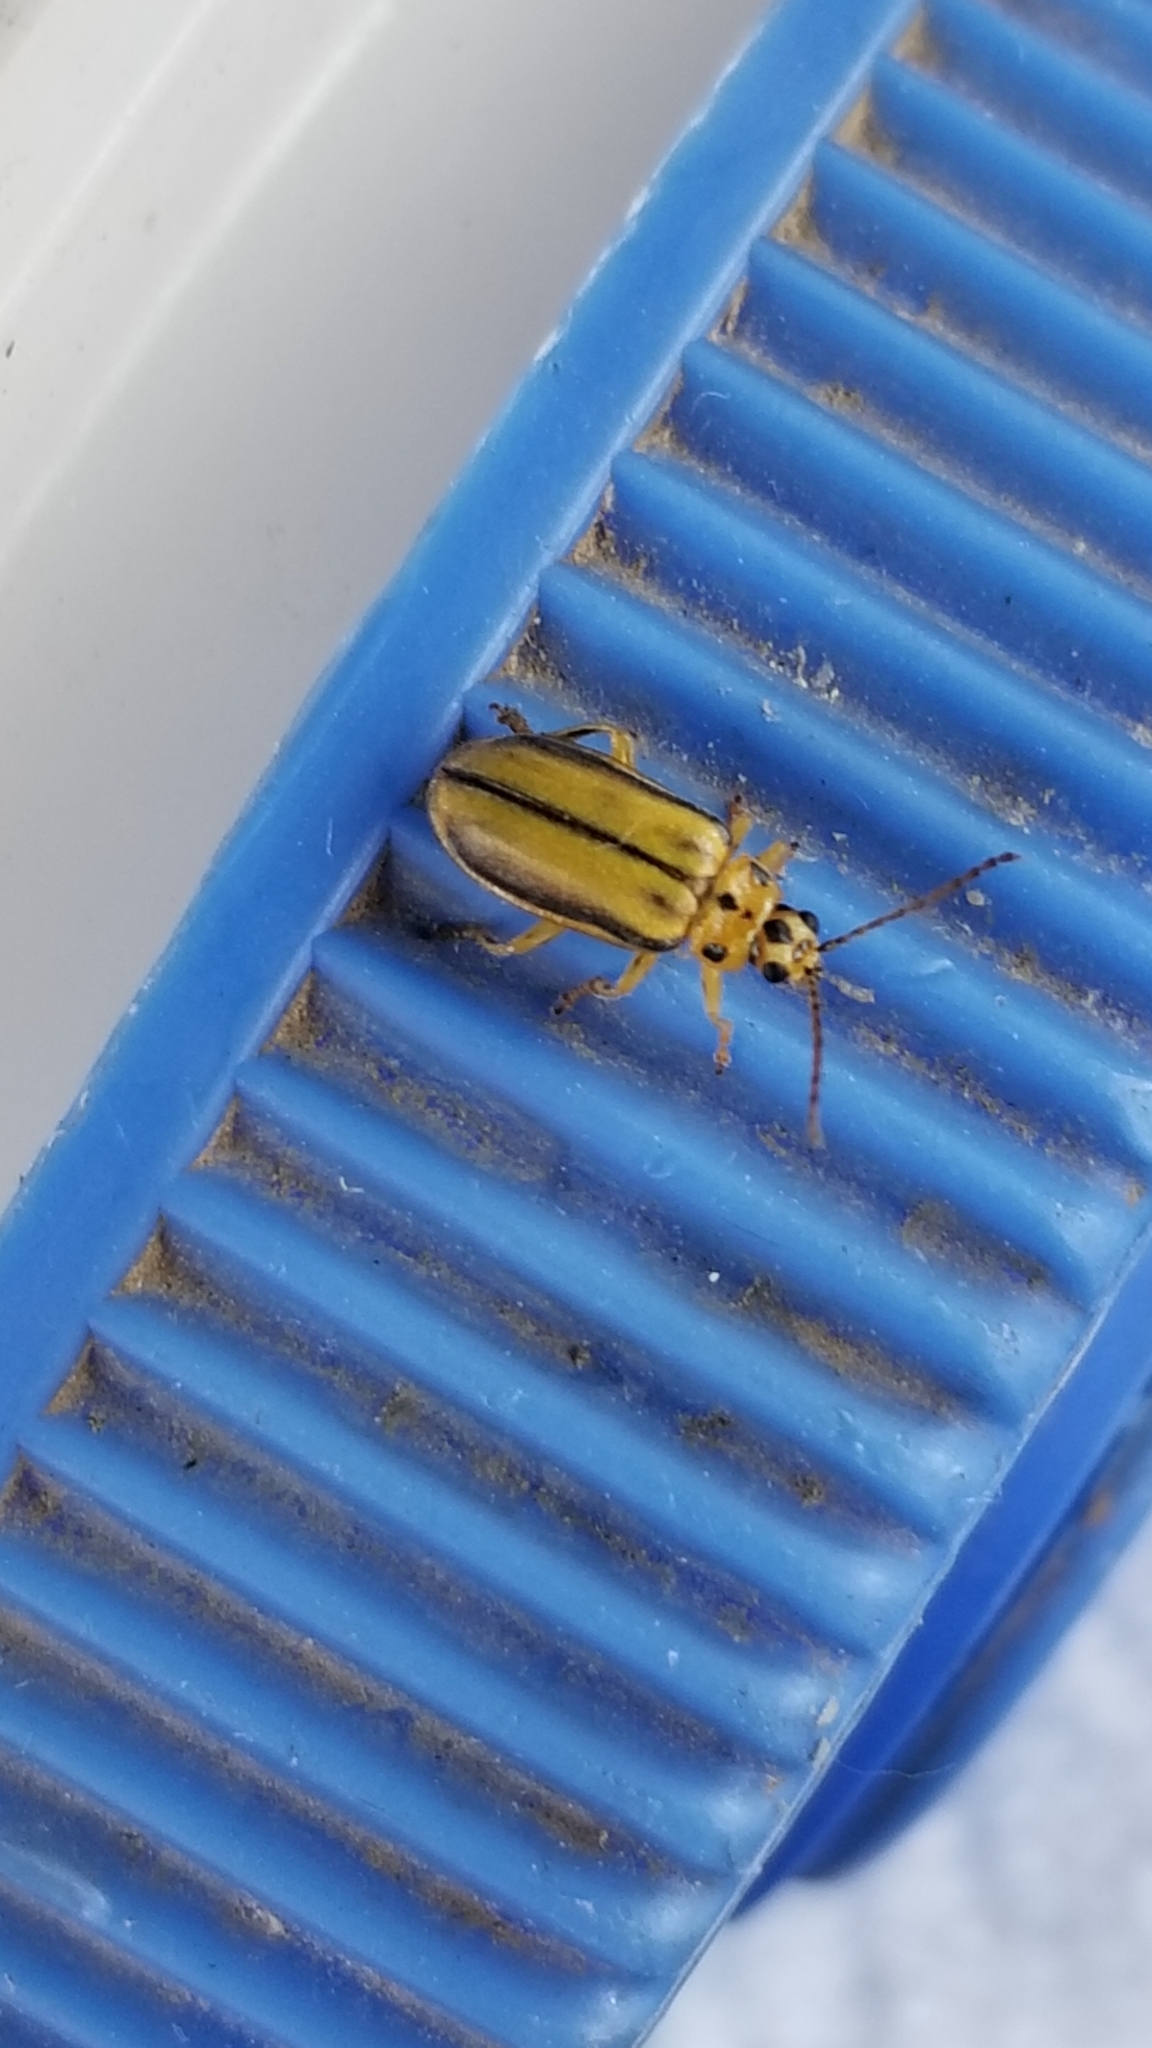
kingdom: Animalia
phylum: Arthropoda
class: Insecta
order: Coleoptera
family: Chrysomelidae
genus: Xanthogaleruca
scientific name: Xanthogaleruca luteola
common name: Elm leaf beetle
